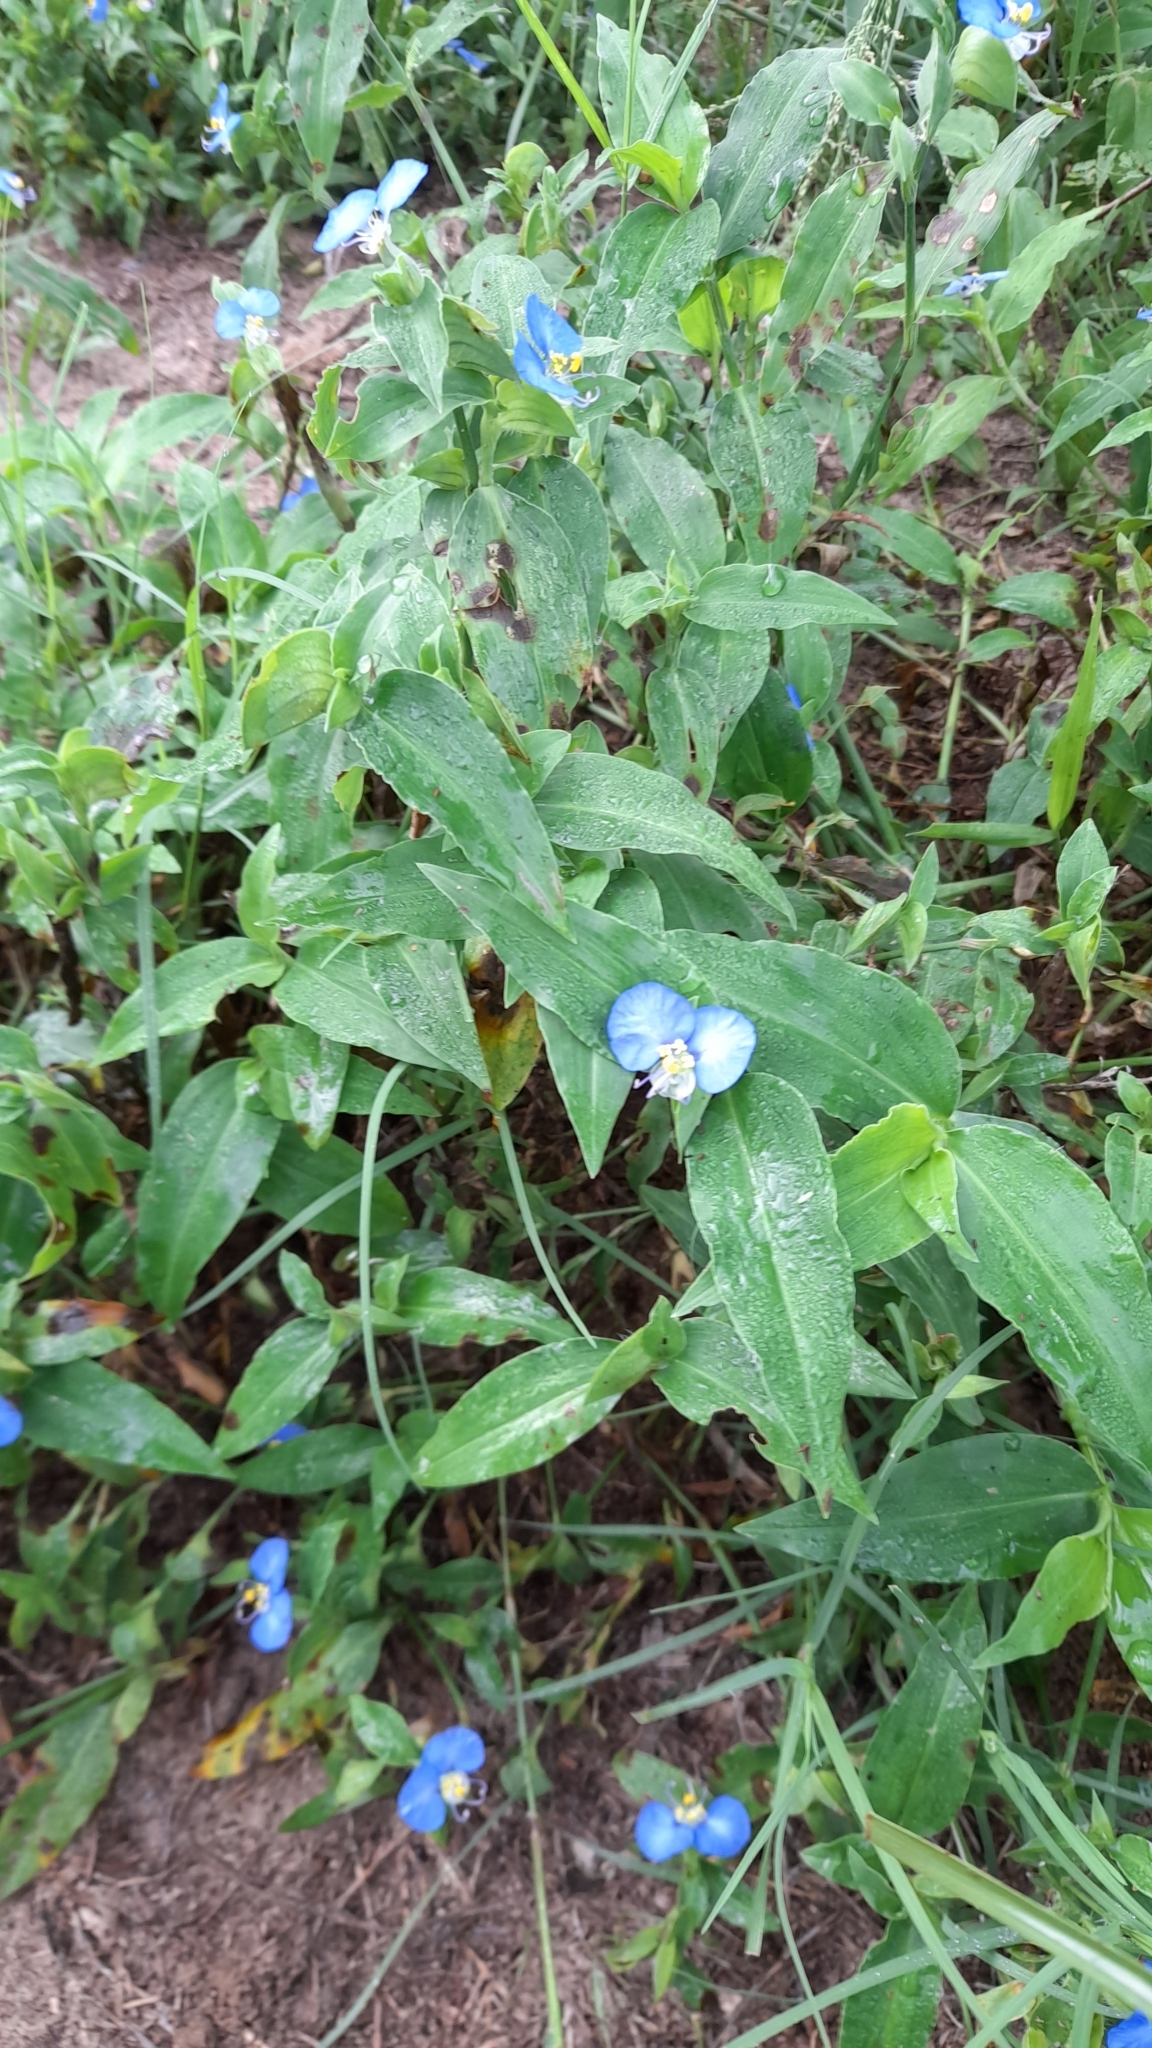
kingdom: Plantae
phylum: Tracheophyta
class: Liliopsida
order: Commelinales
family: Commelinaceae
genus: Commelina
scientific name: Commelina erecta
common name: Blousel blommetjie
